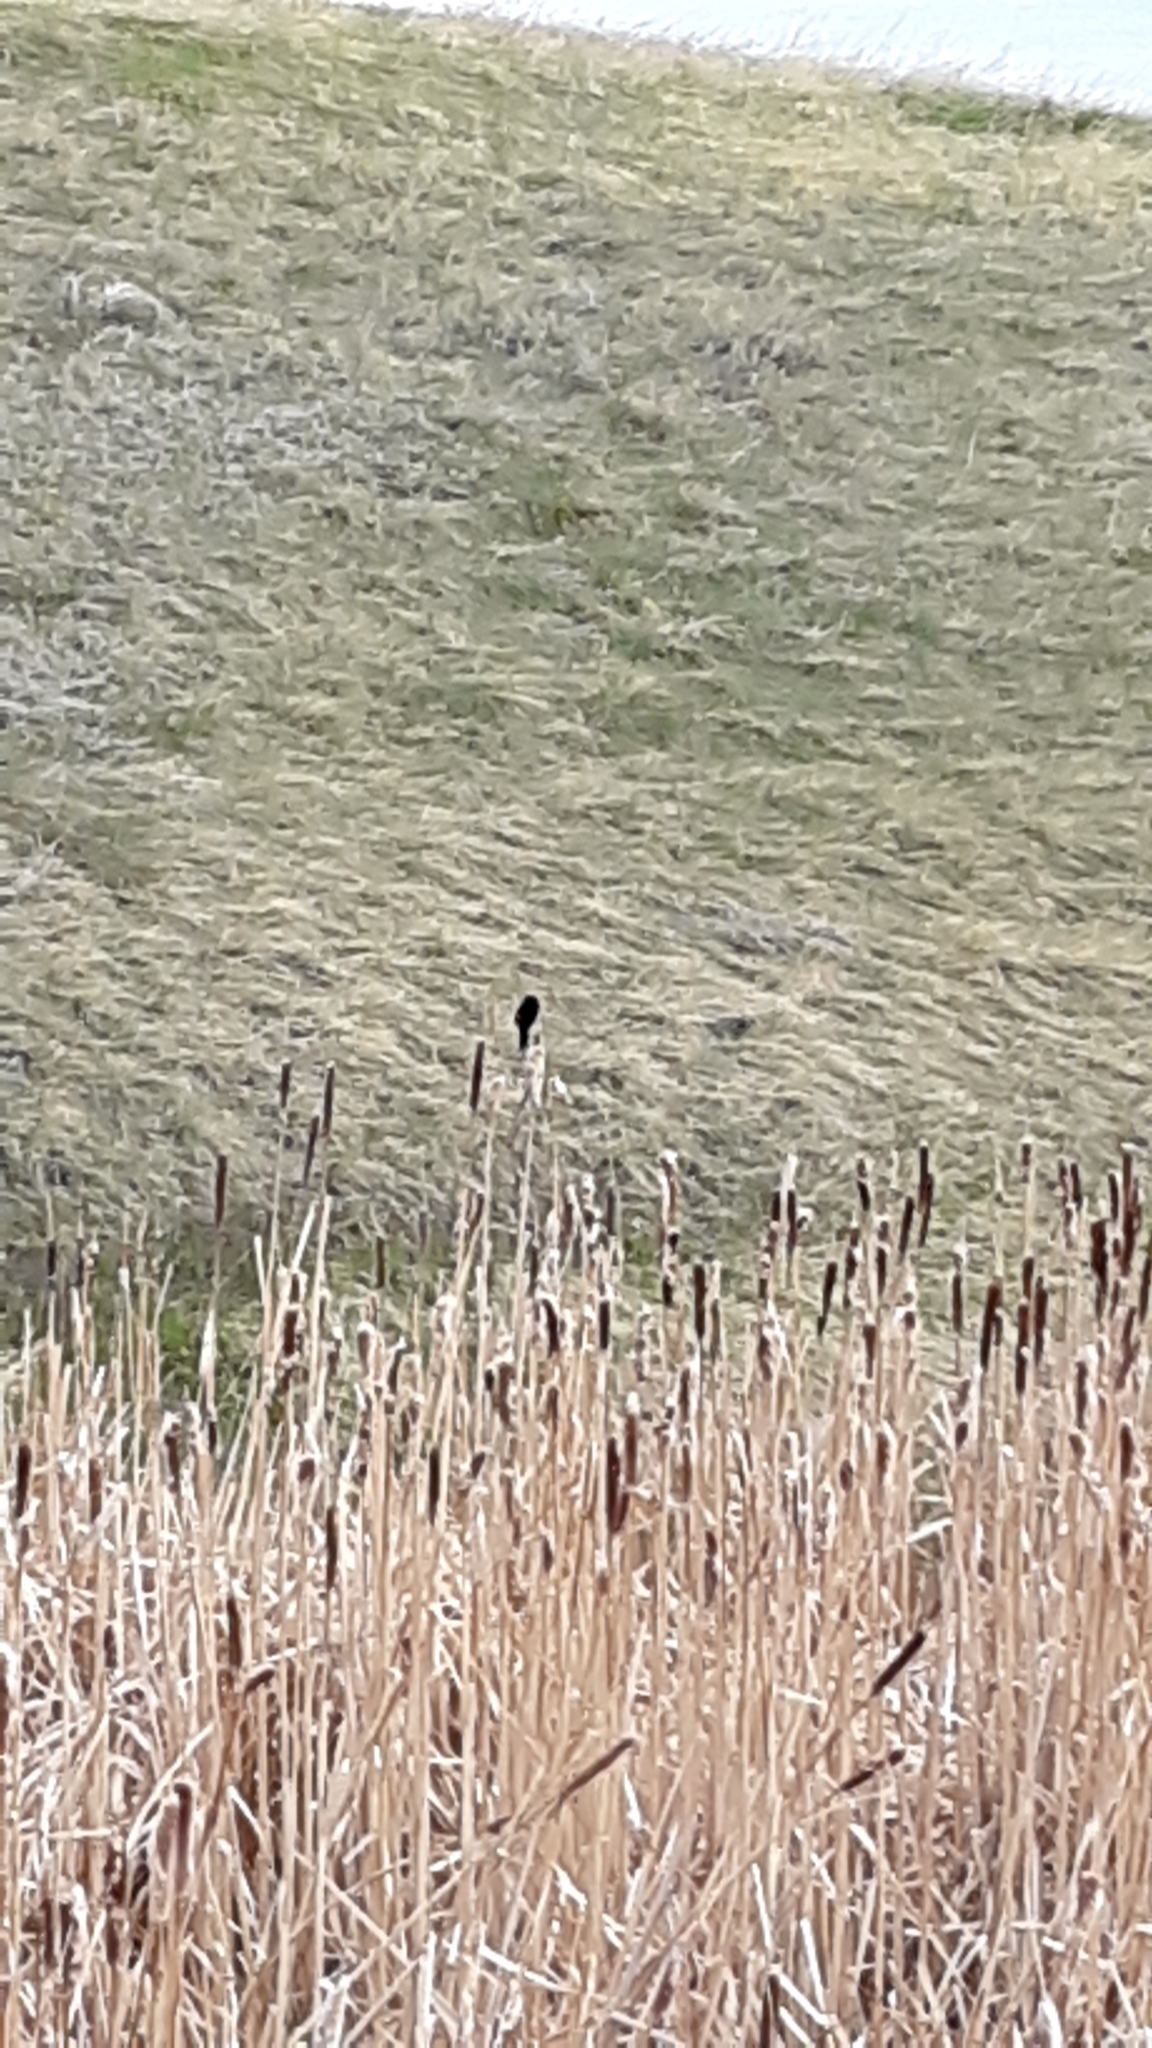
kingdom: Animalia
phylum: Chordata
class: Aves
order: Passeriformes
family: Icteridae
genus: Agelaius
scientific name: Agelaius phoeniceus
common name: Red-winged blackbird
